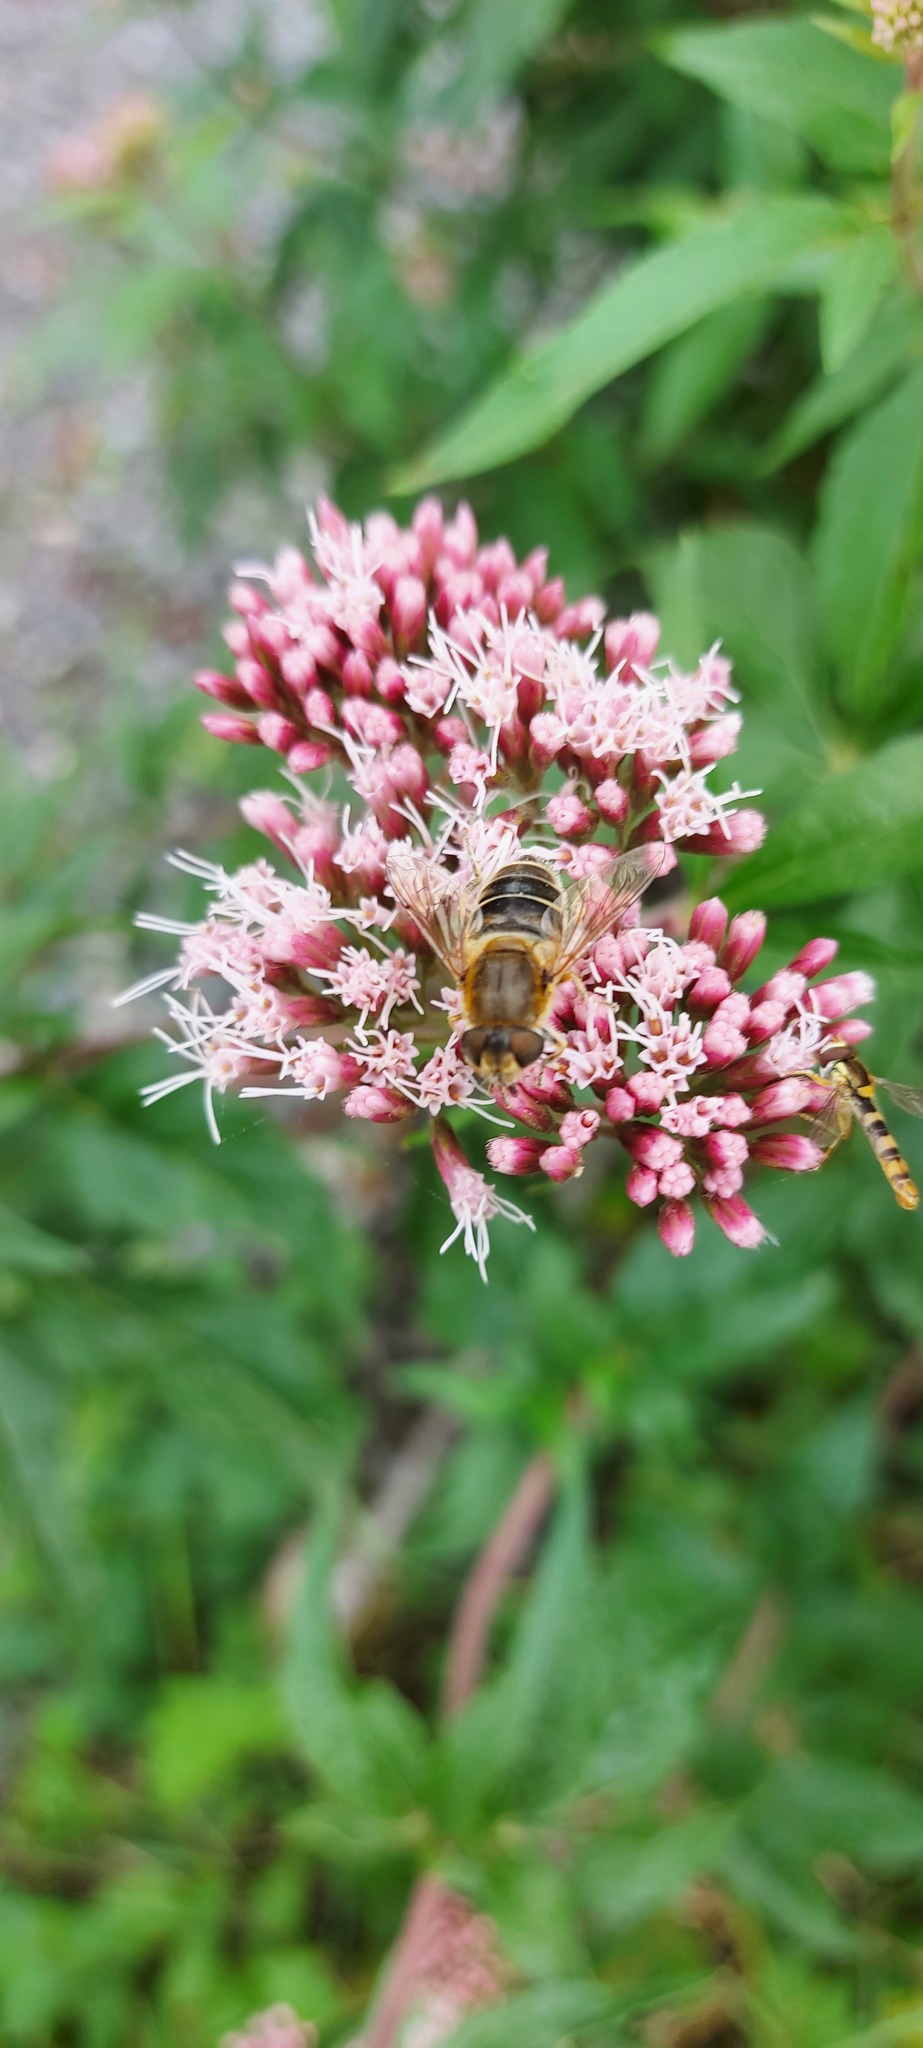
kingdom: Animalia
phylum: Arthropoda
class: Insecta
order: Diptera
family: Syrphidae
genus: Eristalis
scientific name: Eristalis nemorum
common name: Orange-spined drone fly
